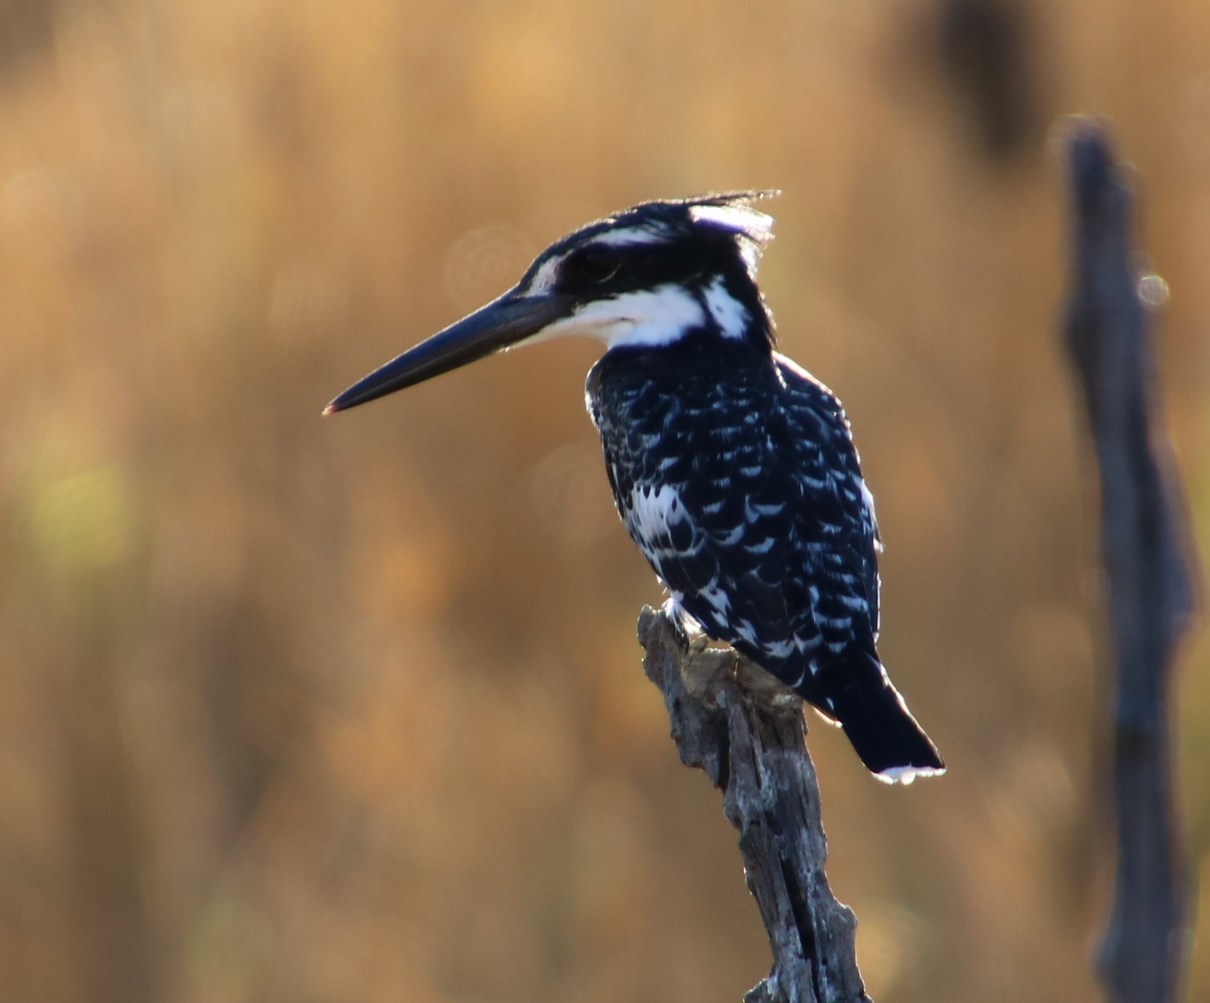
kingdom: Animalia
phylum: Chordata
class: Aves
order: Coraciiformes
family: Alcedinidae
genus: Ceryle
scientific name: Ceryle rudis
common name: Pied kingfisher
